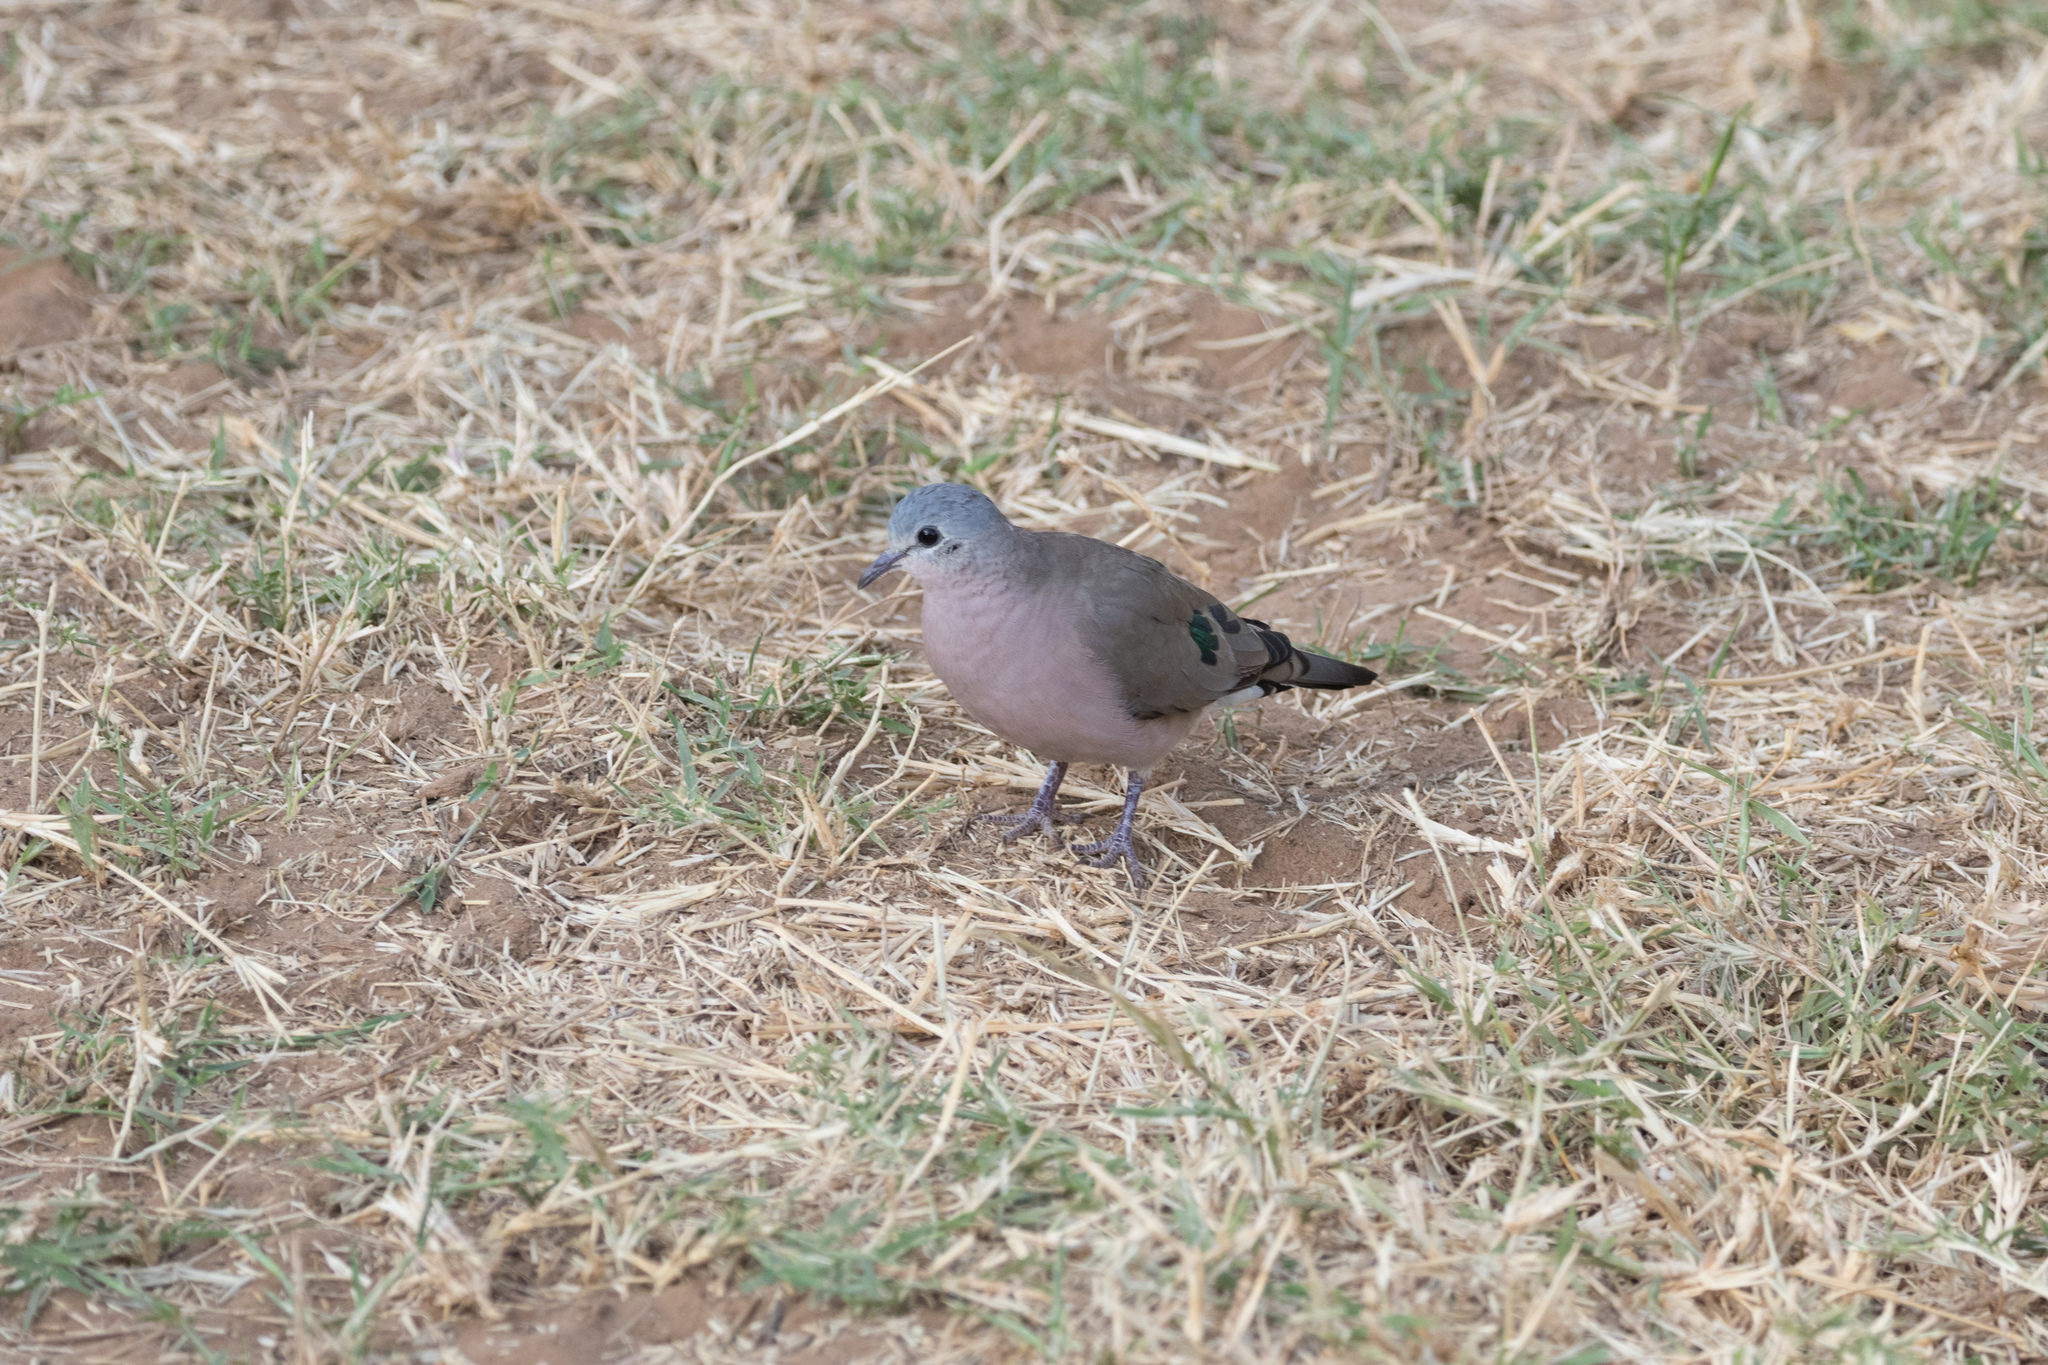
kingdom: Animalia
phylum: Chordata
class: Aves
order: Columbiformes
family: Columbidae
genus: Turtur
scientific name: Turtur chalcospilos
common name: Emerald-spotted wood dove
